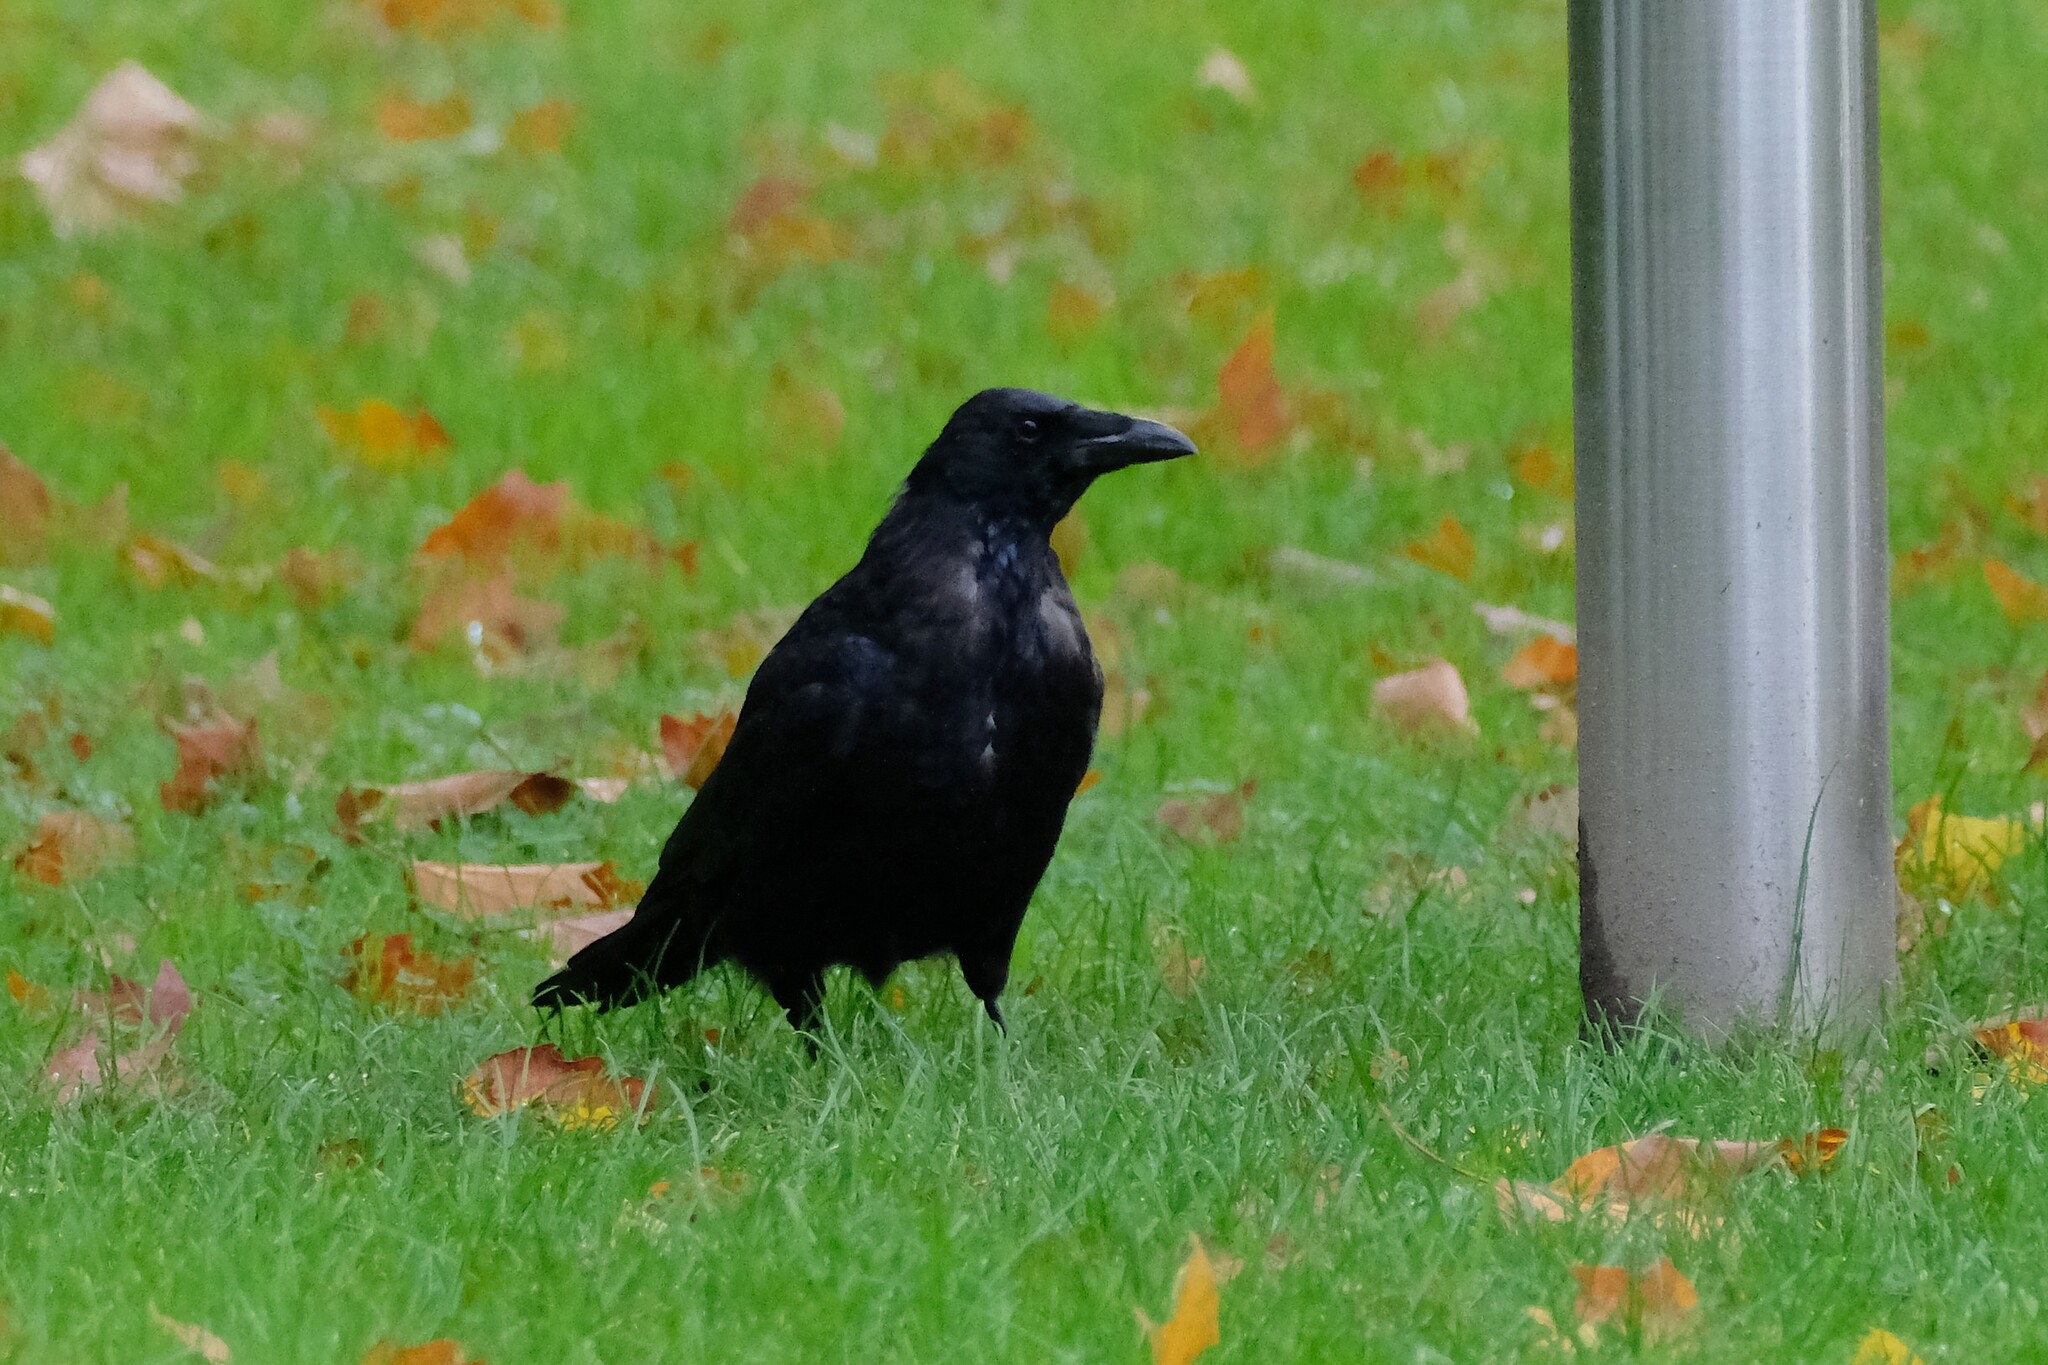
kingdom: Animalia
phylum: Chordata
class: Aves
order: Passeriformes
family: Corvidae
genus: Corvus
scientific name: Corvus corone
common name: Carrion crow
